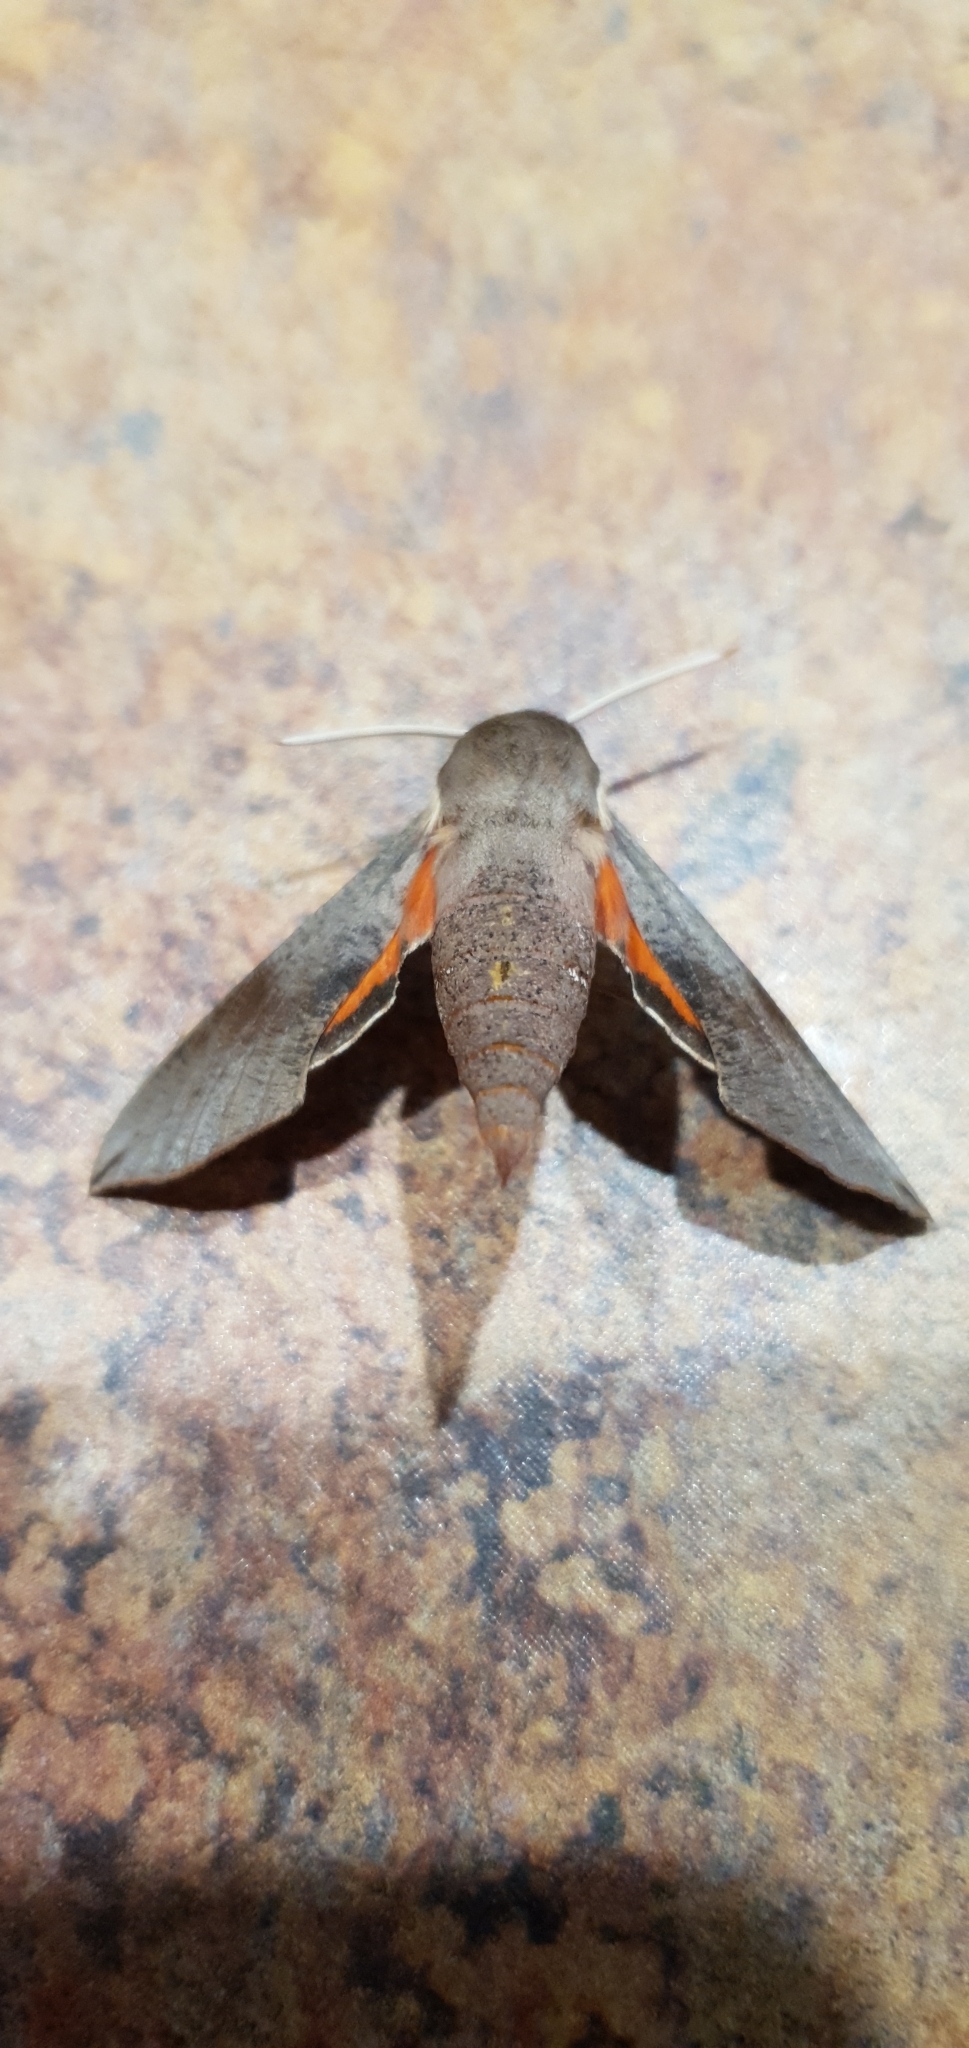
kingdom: Animalia
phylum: Arthropoda
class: Insecta
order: Lepidoptera
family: Sphingidae
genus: Hippotion
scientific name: Hippotion scrofa
